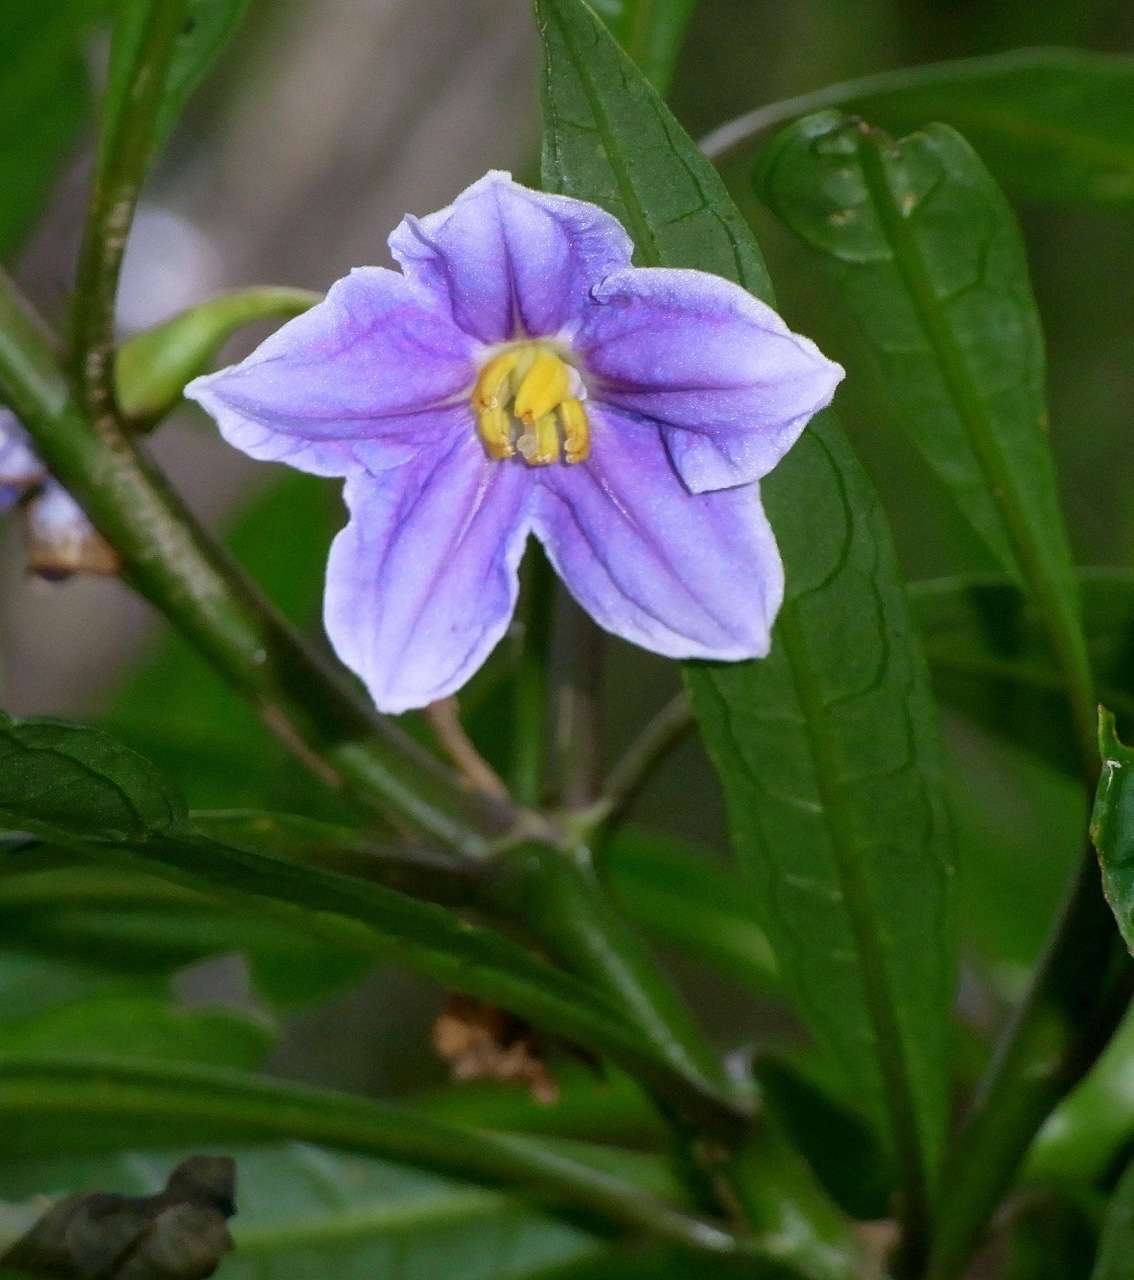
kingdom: Plantae
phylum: Tracheophyta
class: Magnoliopsida
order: Solanales
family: Solanaceae
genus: Solanum
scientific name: Solanum aviculare
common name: New zealand nightshade
